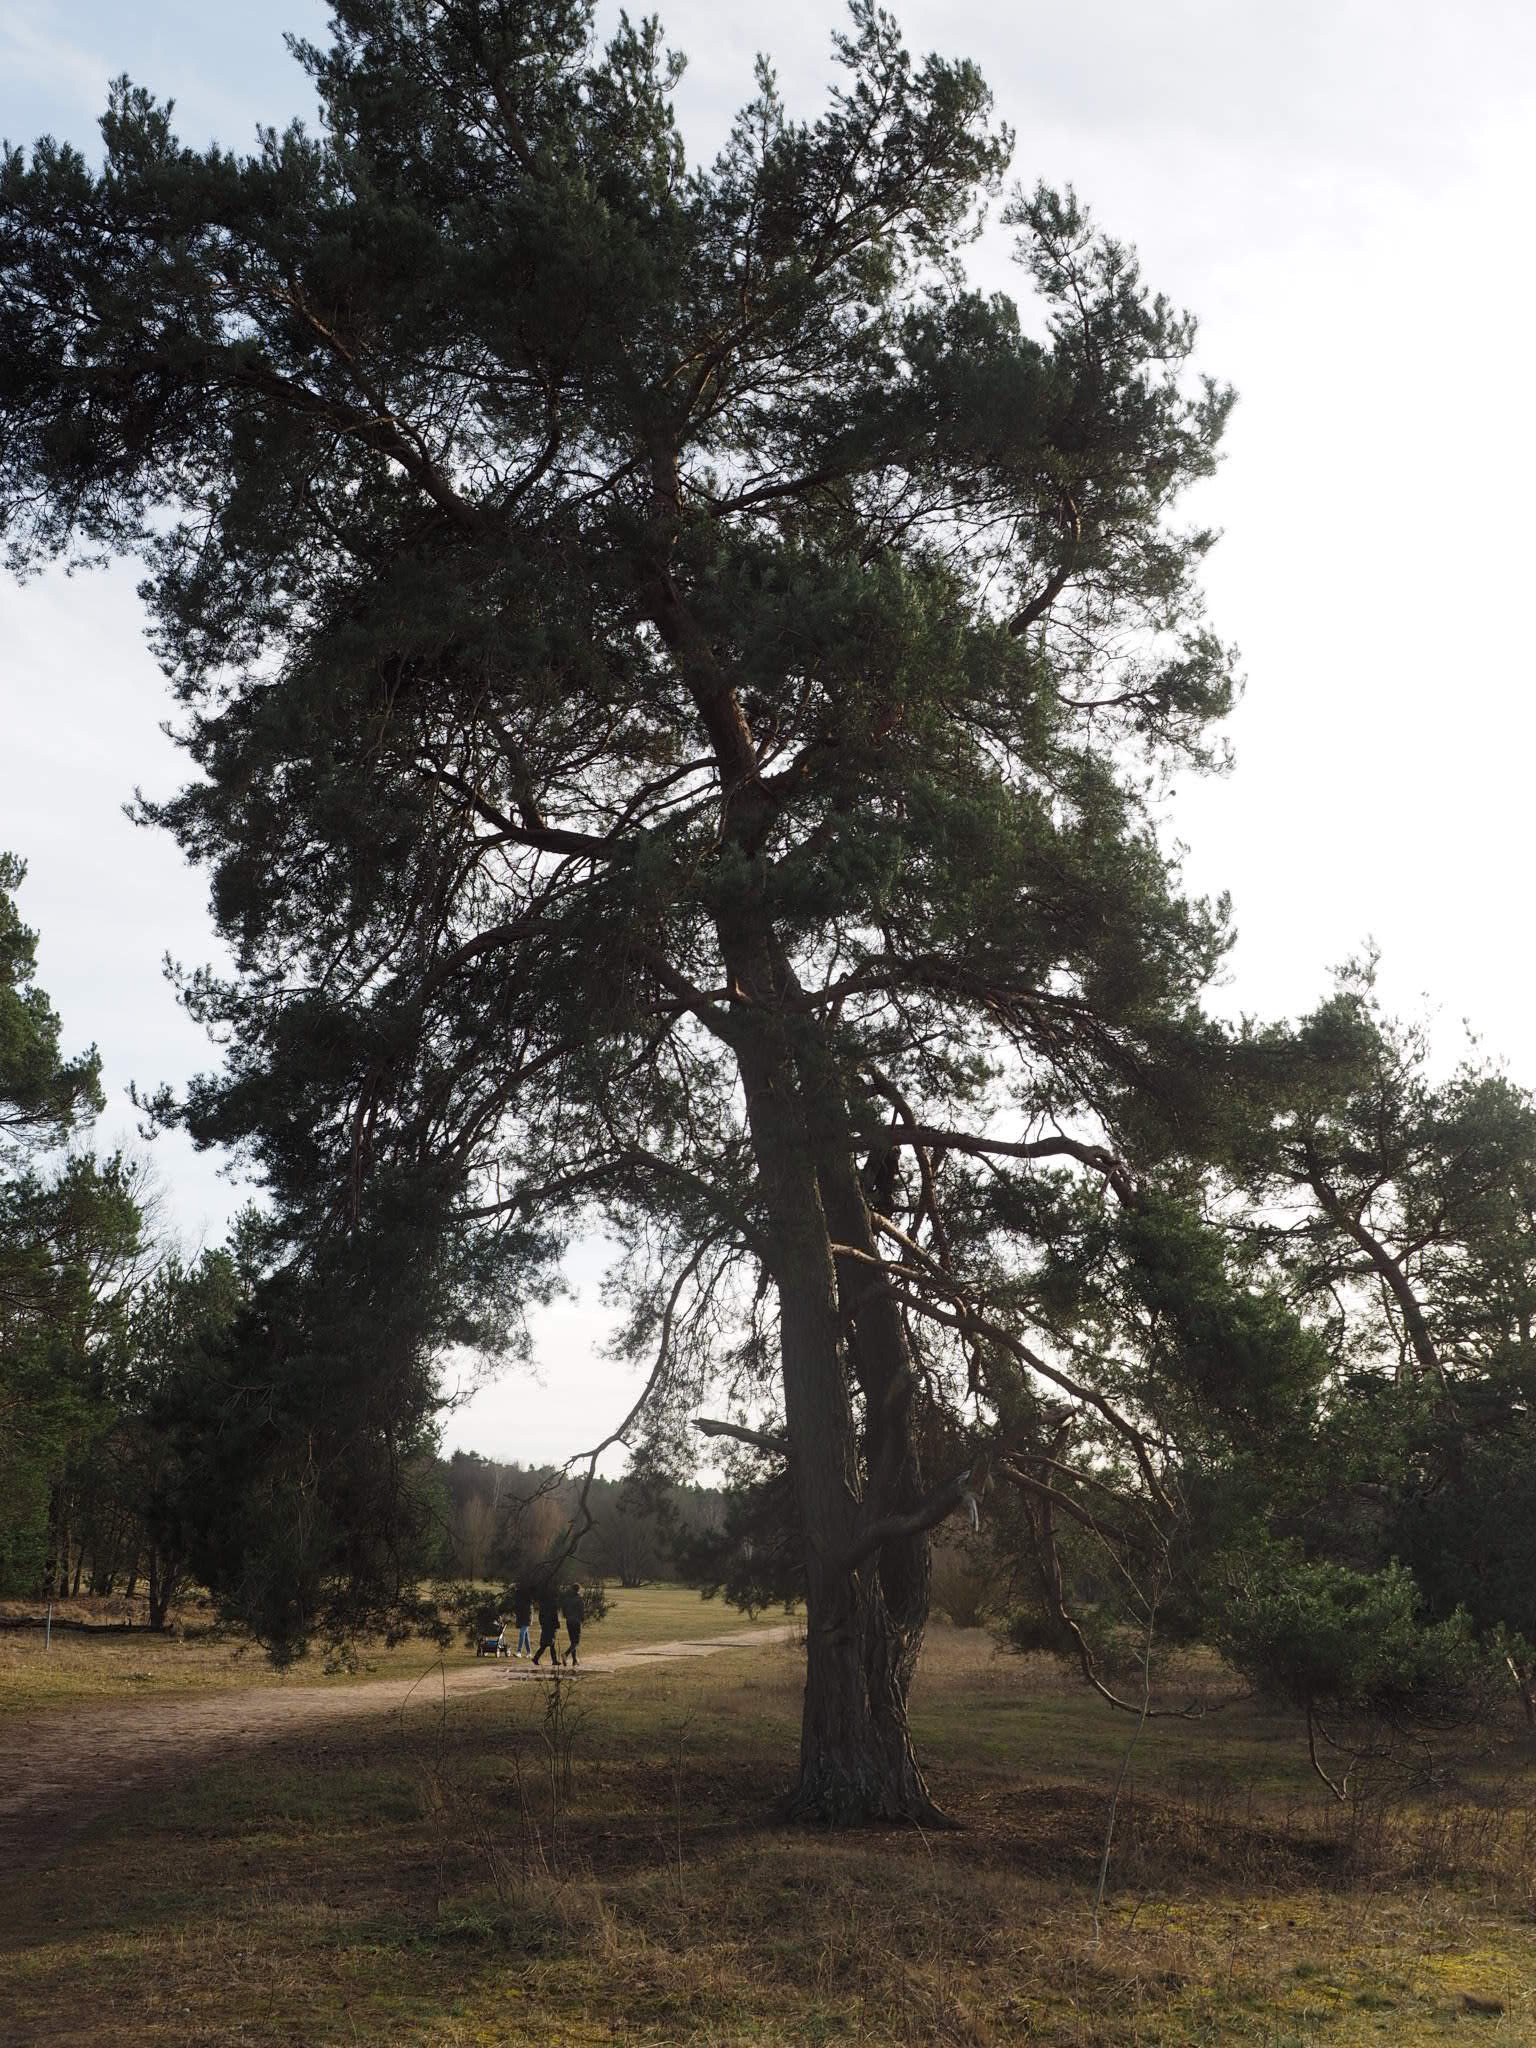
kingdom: Plantae
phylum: Tracheophyta
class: Pinopsida
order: Pinales
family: Pinaceae
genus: Pinus
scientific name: Pinus sylvestris
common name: Scots pine
